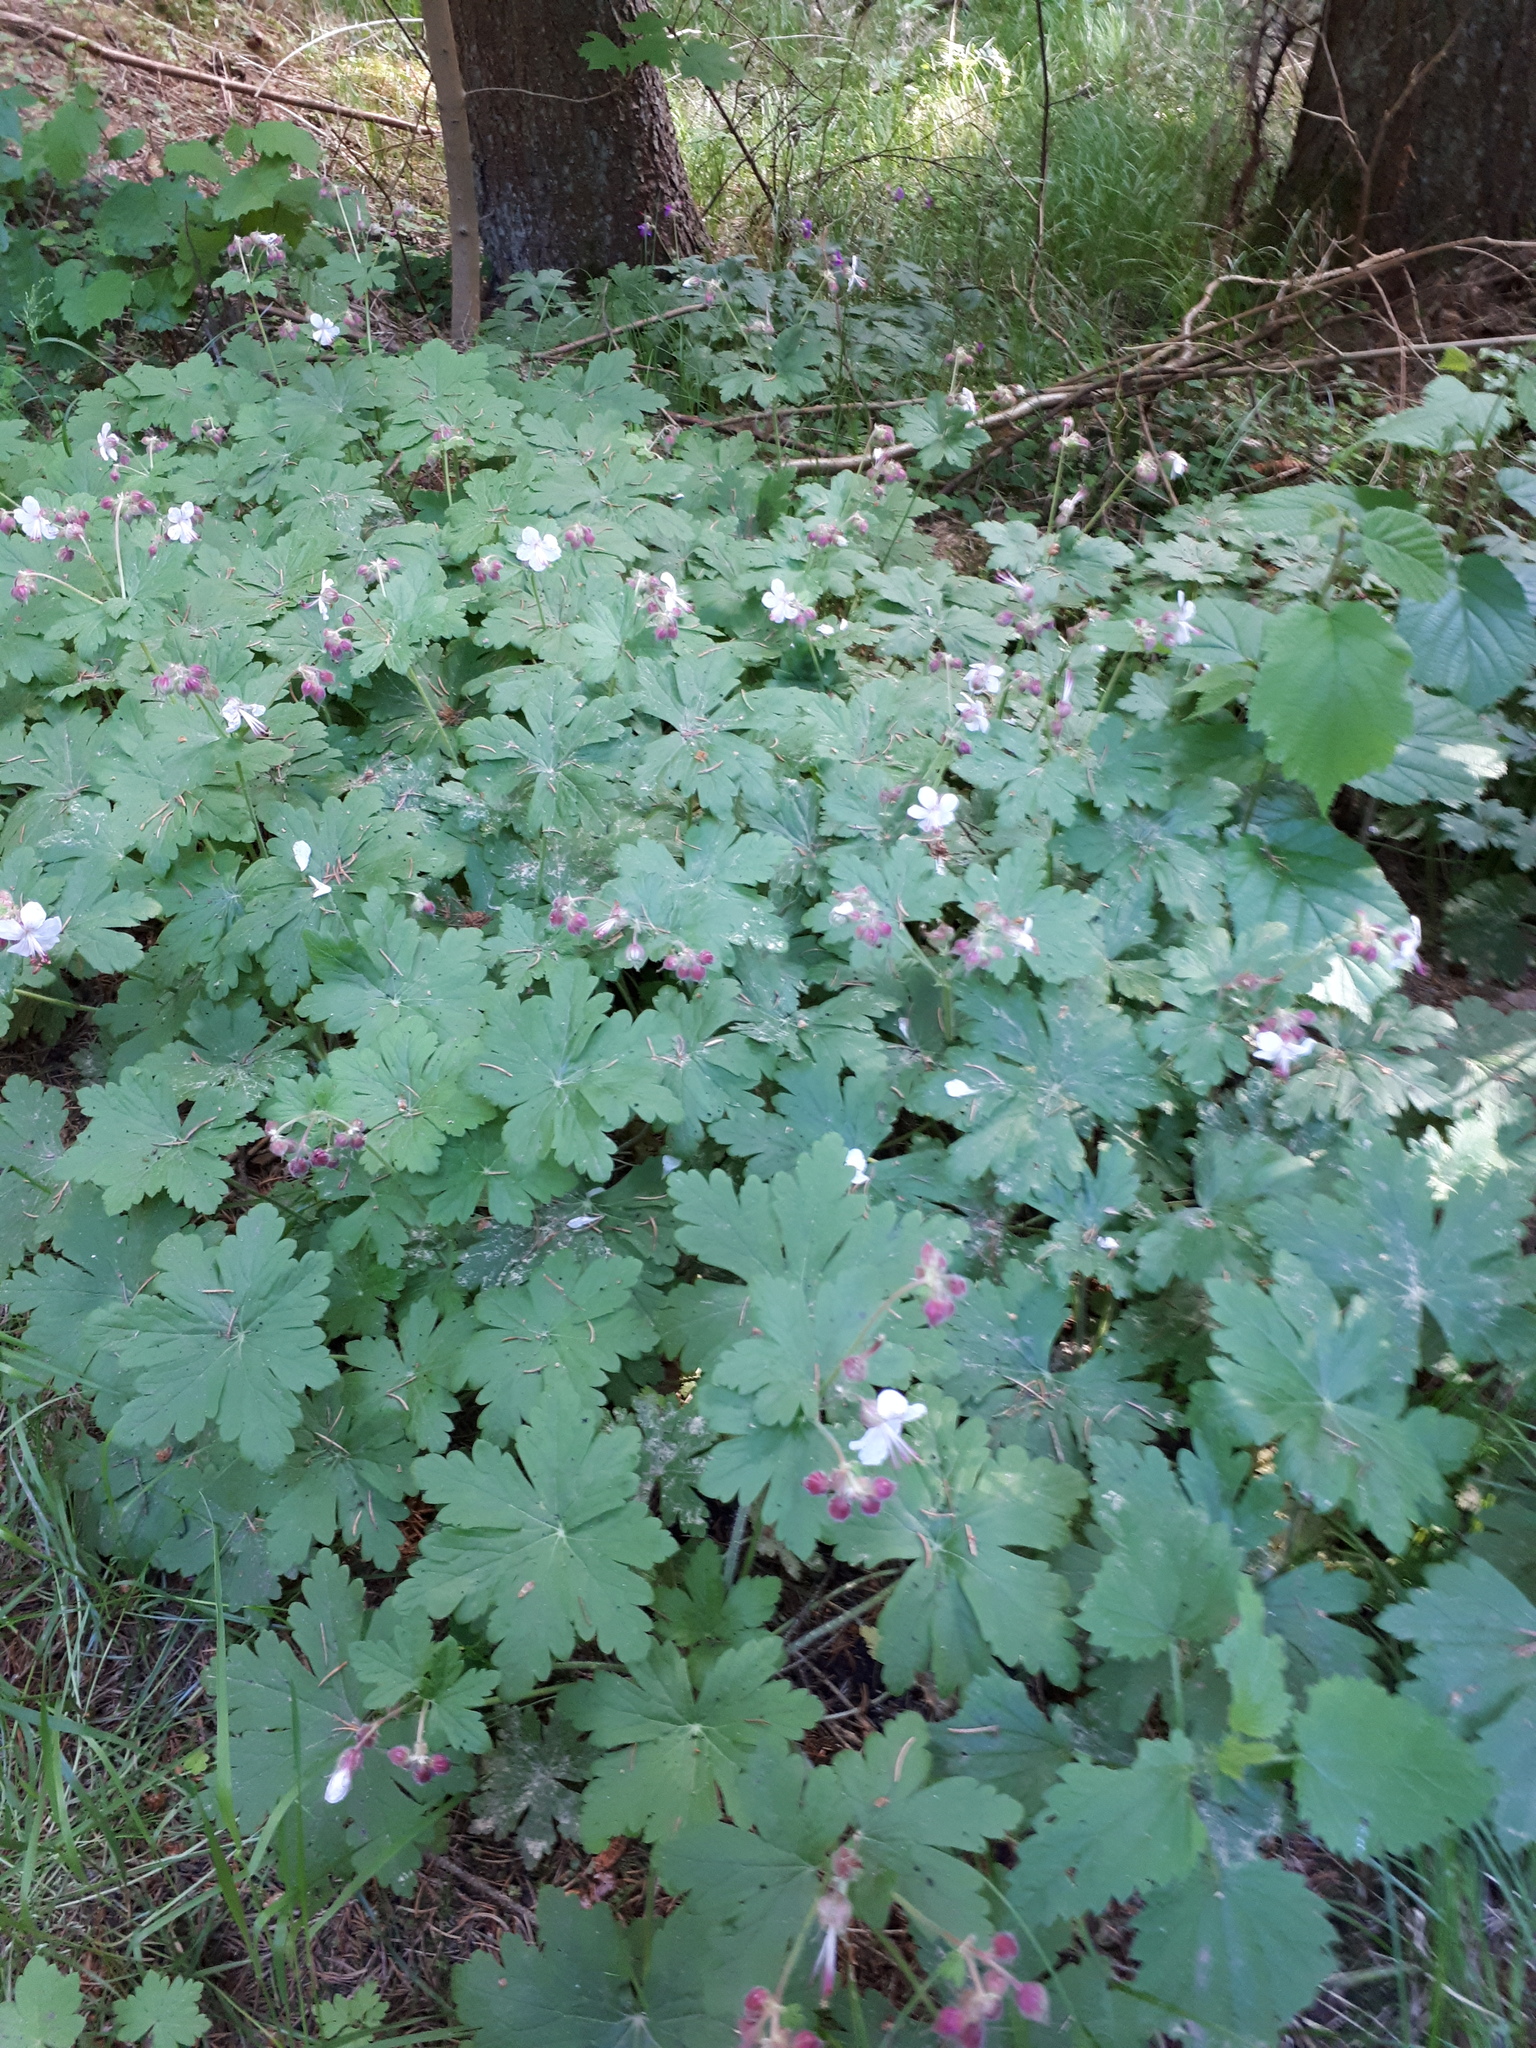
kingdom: Plantae
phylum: Tracheophyta
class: Magnoliopsida
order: Geraniales
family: Geraniaceae
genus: Geranium
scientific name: Geranium macrorrhizum
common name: Rock crane's-bill
